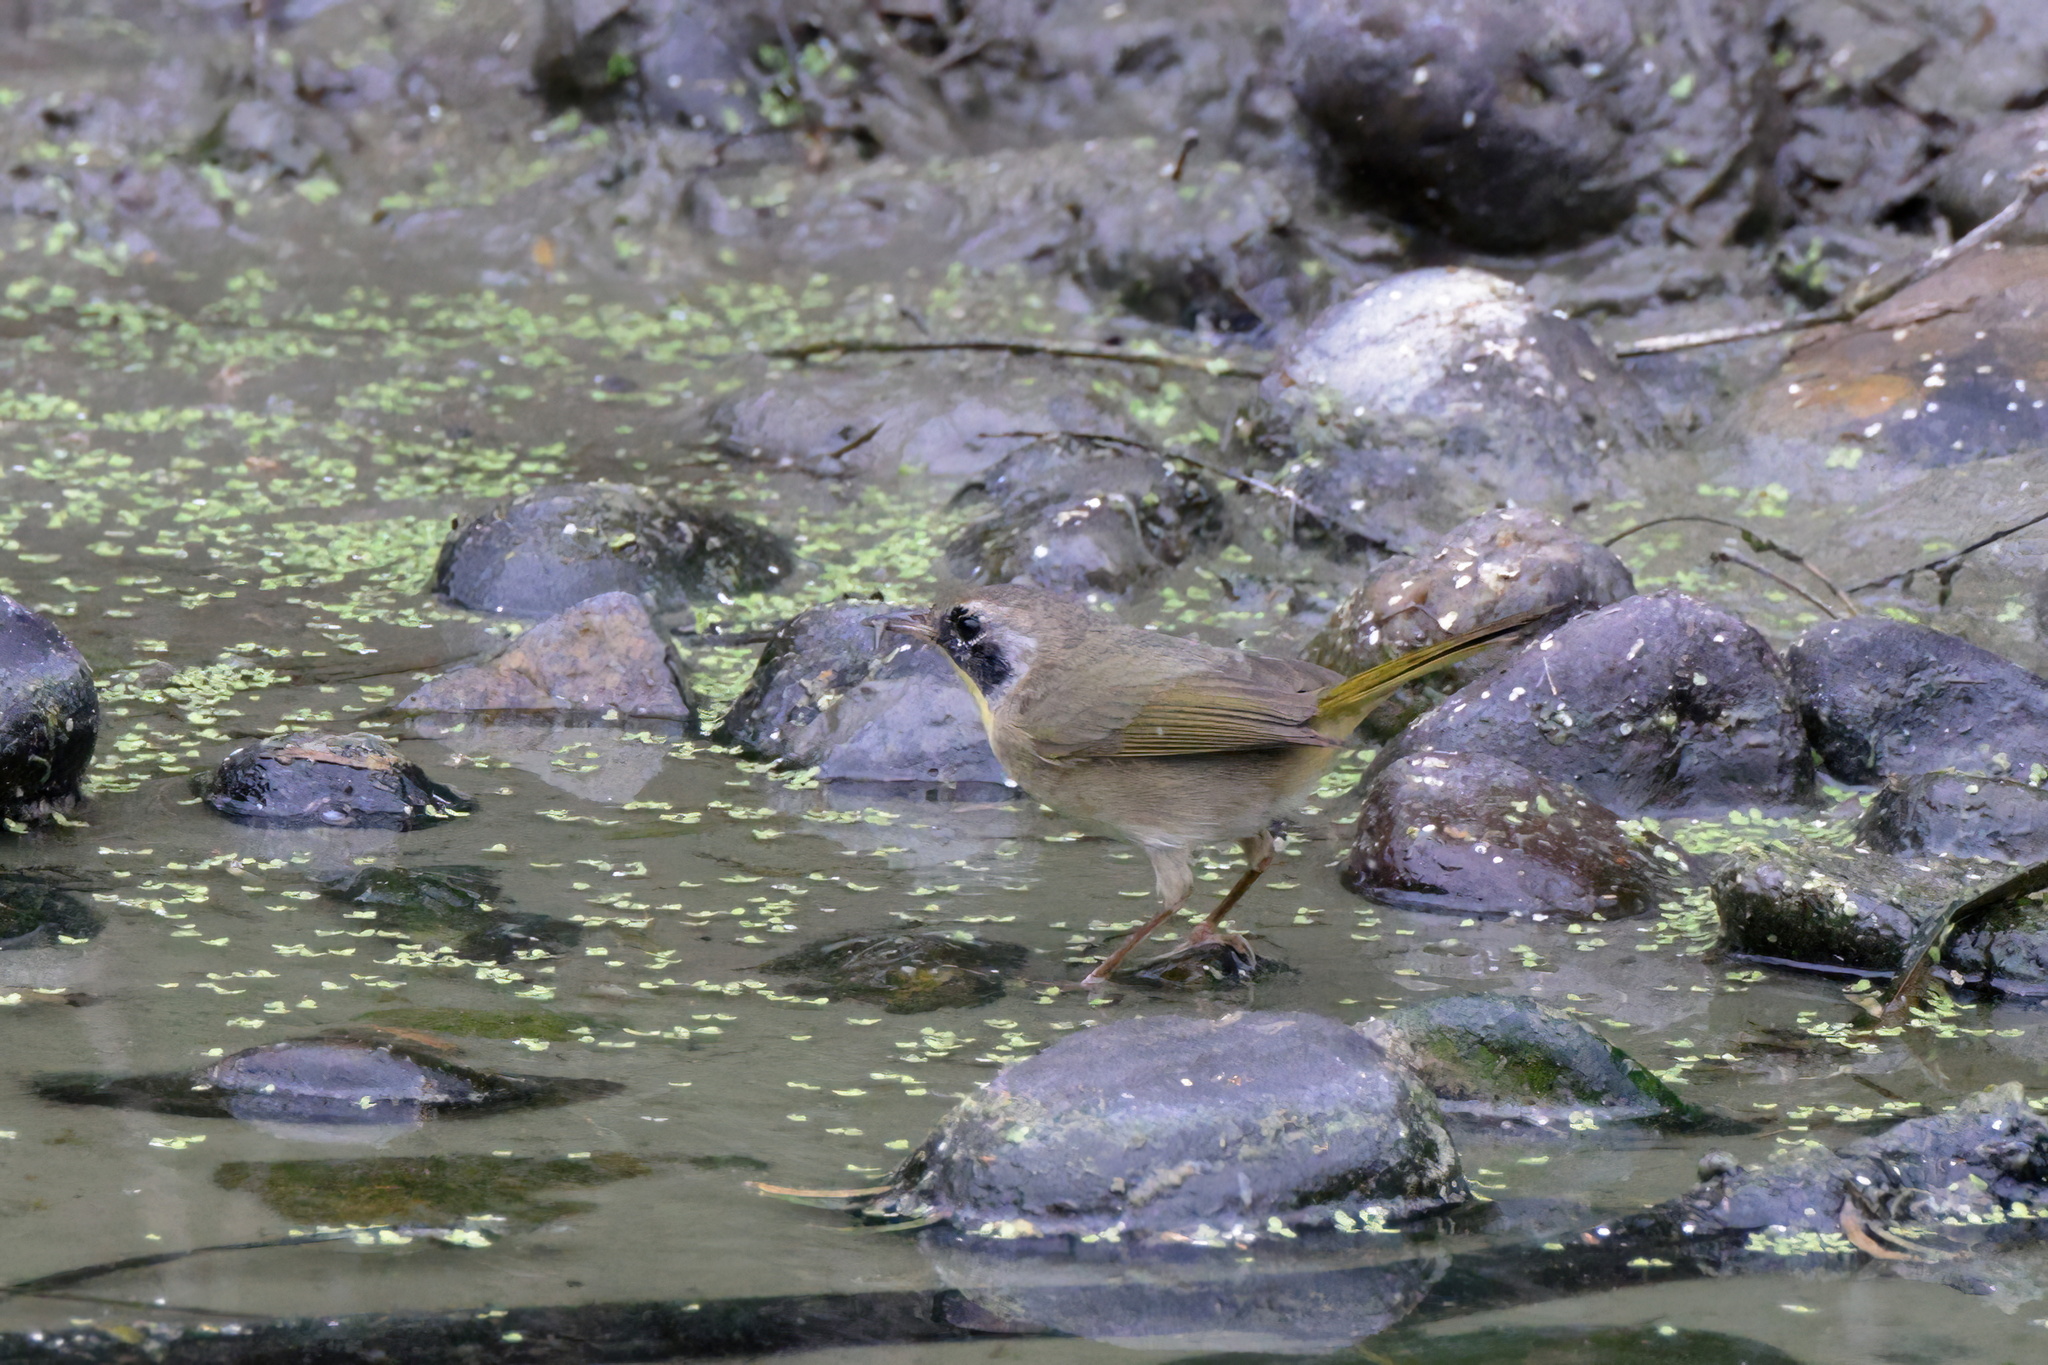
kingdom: Animalia
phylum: Chordata
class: Aves
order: Passeriformes
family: Parulidae
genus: Geothlypis
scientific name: Geothlypis trichas
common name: Common yellowthroat
